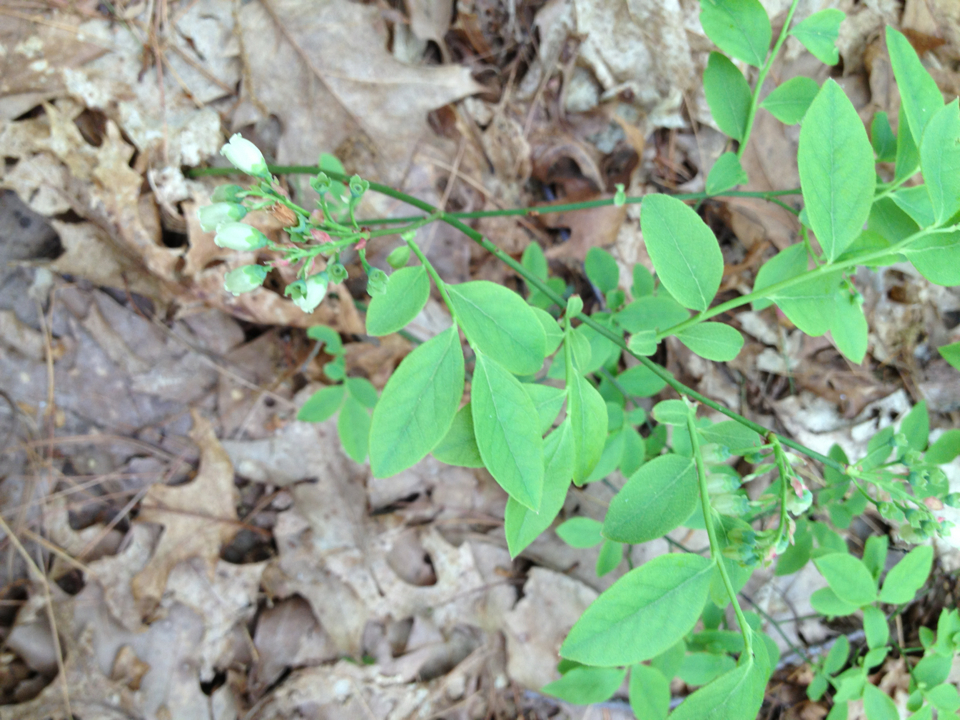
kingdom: Plantae
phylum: Tracheophyta
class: Magnoliopsida
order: Ericales
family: Ericaceae
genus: Vaccinium
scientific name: Vaccinium corymbosum
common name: Blueberry
